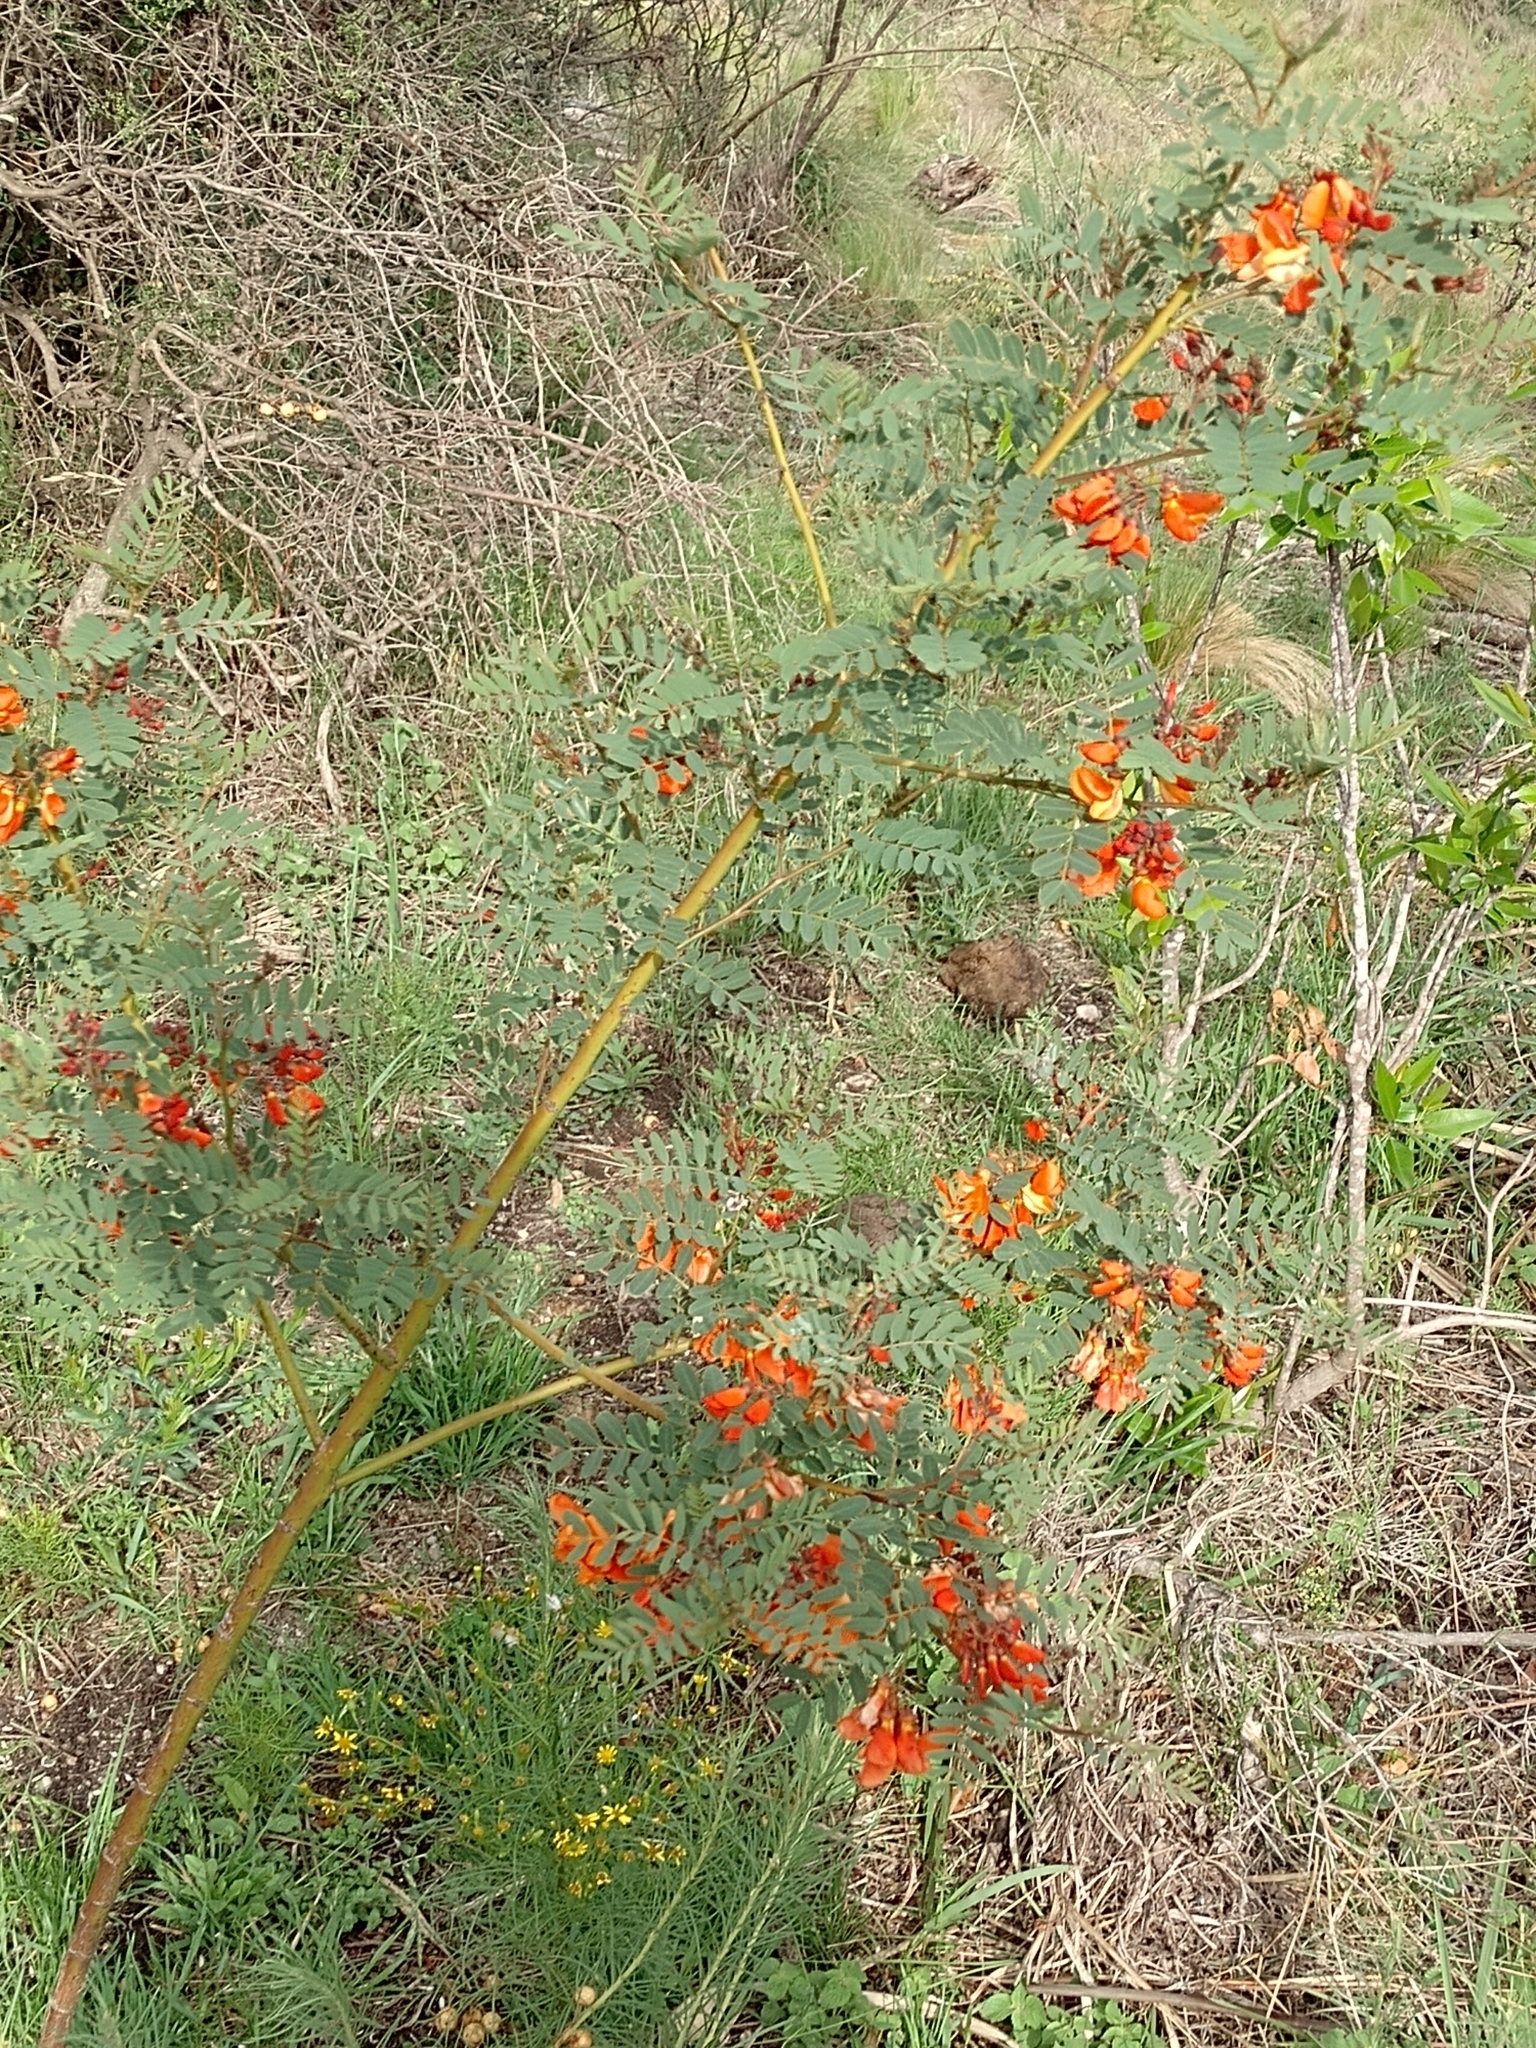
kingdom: Plantae
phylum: Tracheophyta
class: Magnoliopsida
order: Fabales
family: Fabaceae
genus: Sesbania
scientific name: Sesbania punicea
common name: Rattlebox
